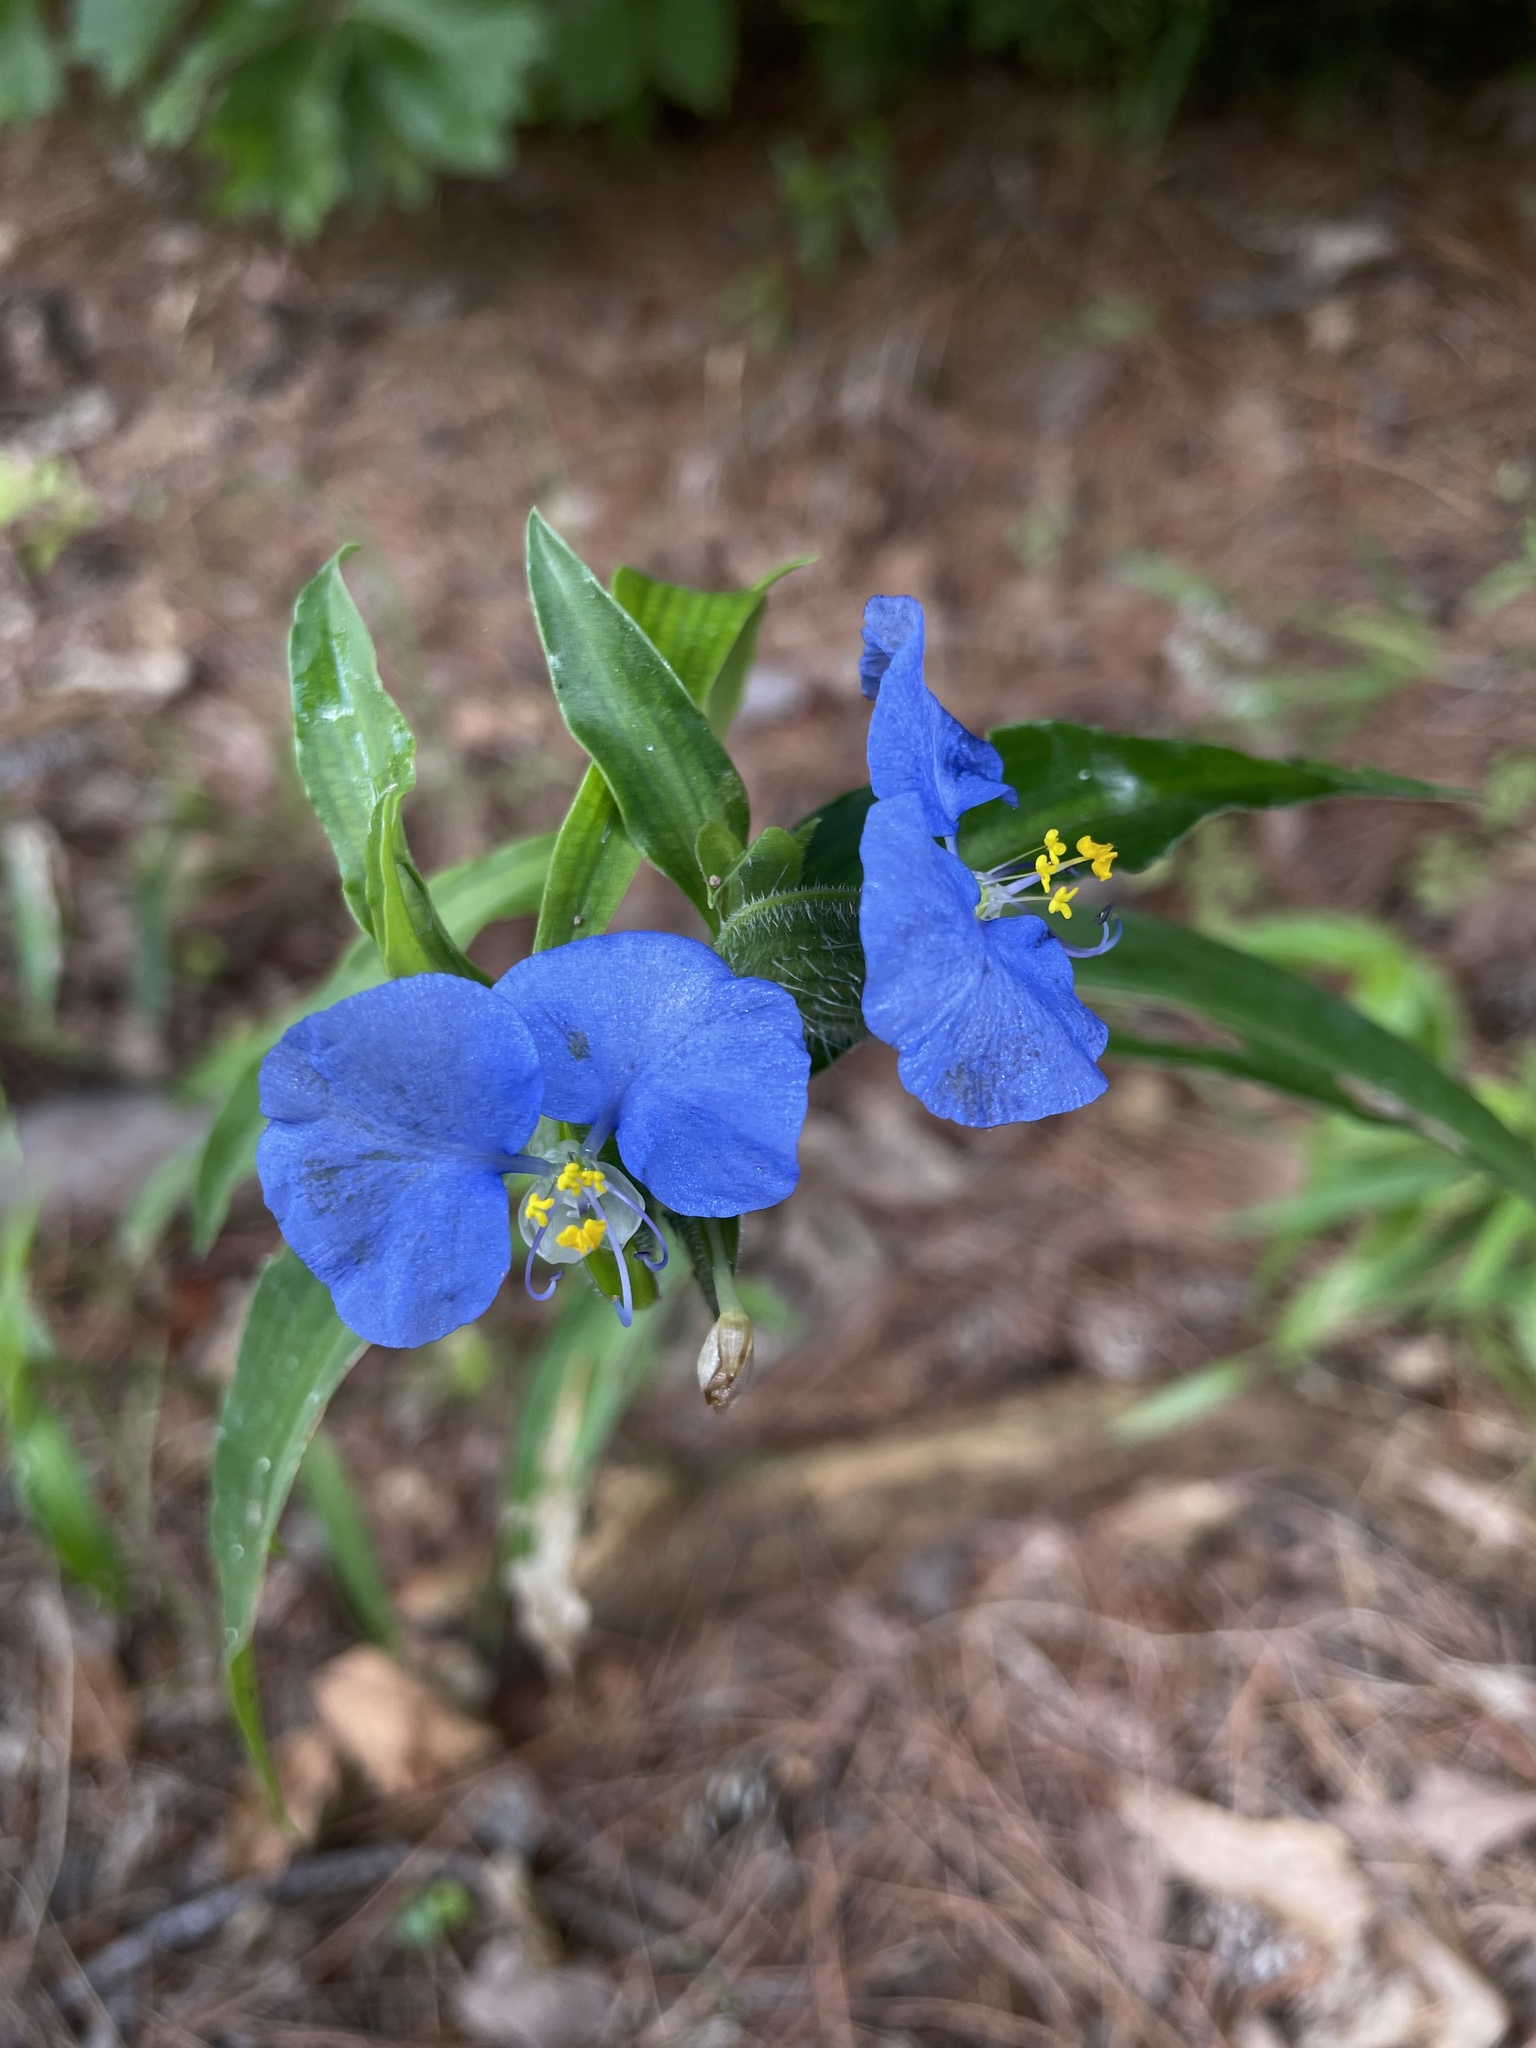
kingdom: Plantae
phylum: Tracheophyta
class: Liliopsida
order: Commelinales
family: Commelinaceae
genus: Commelina
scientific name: Commelina erecta
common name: Blousel blommetjie
